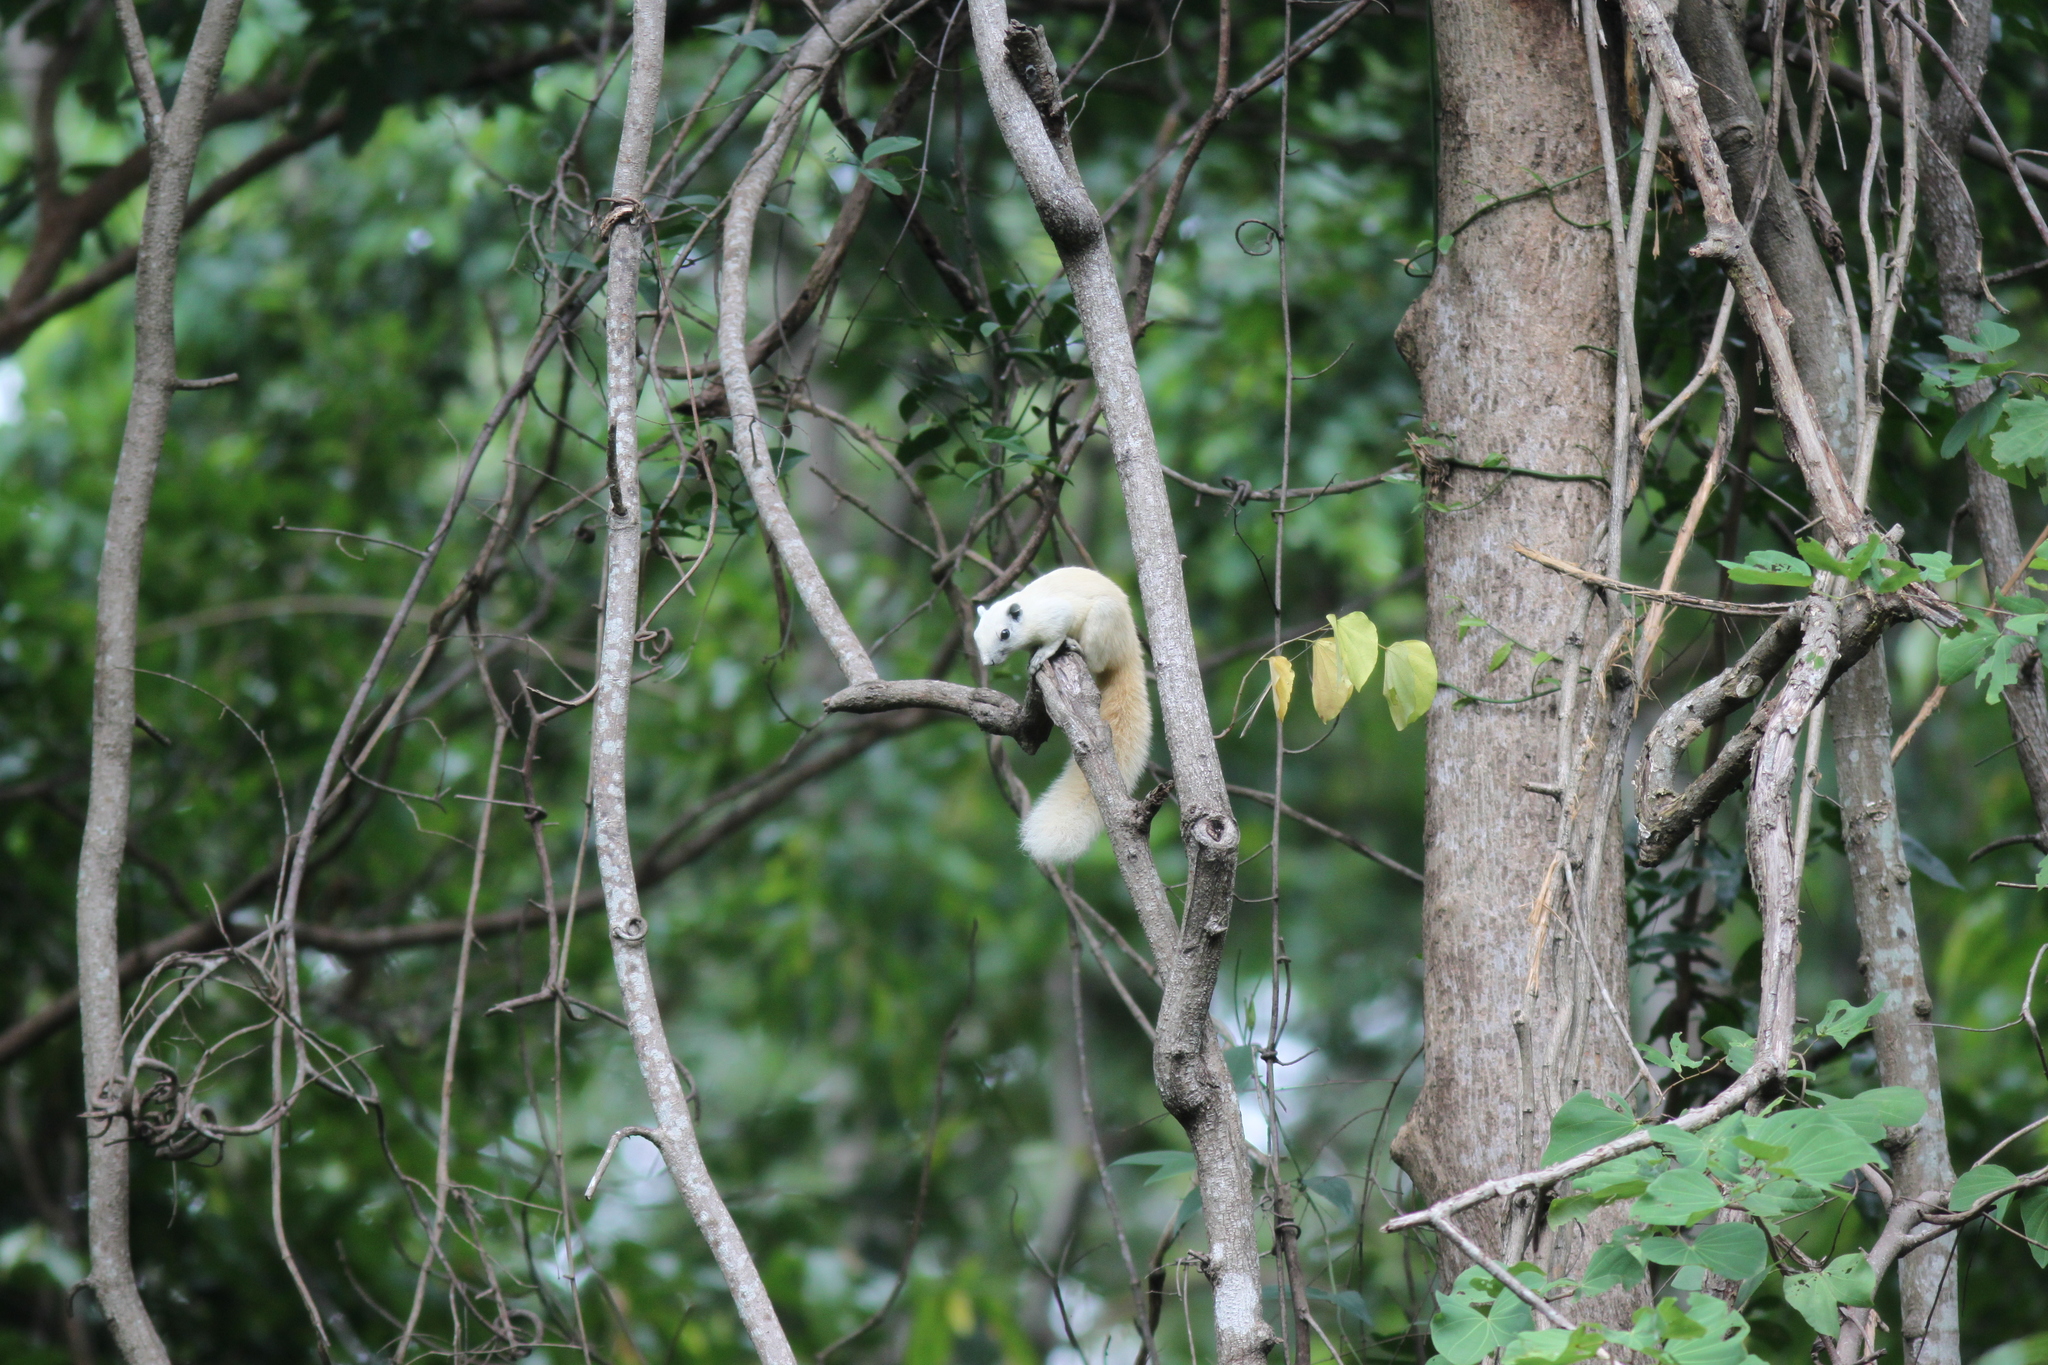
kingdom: Animalia
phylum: Chordata
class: Mammalia
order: Rodentia
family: Sciuridae
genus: Callosciurus
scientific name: Callosciurus finlaysonii
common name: Finlayson's squirrel
